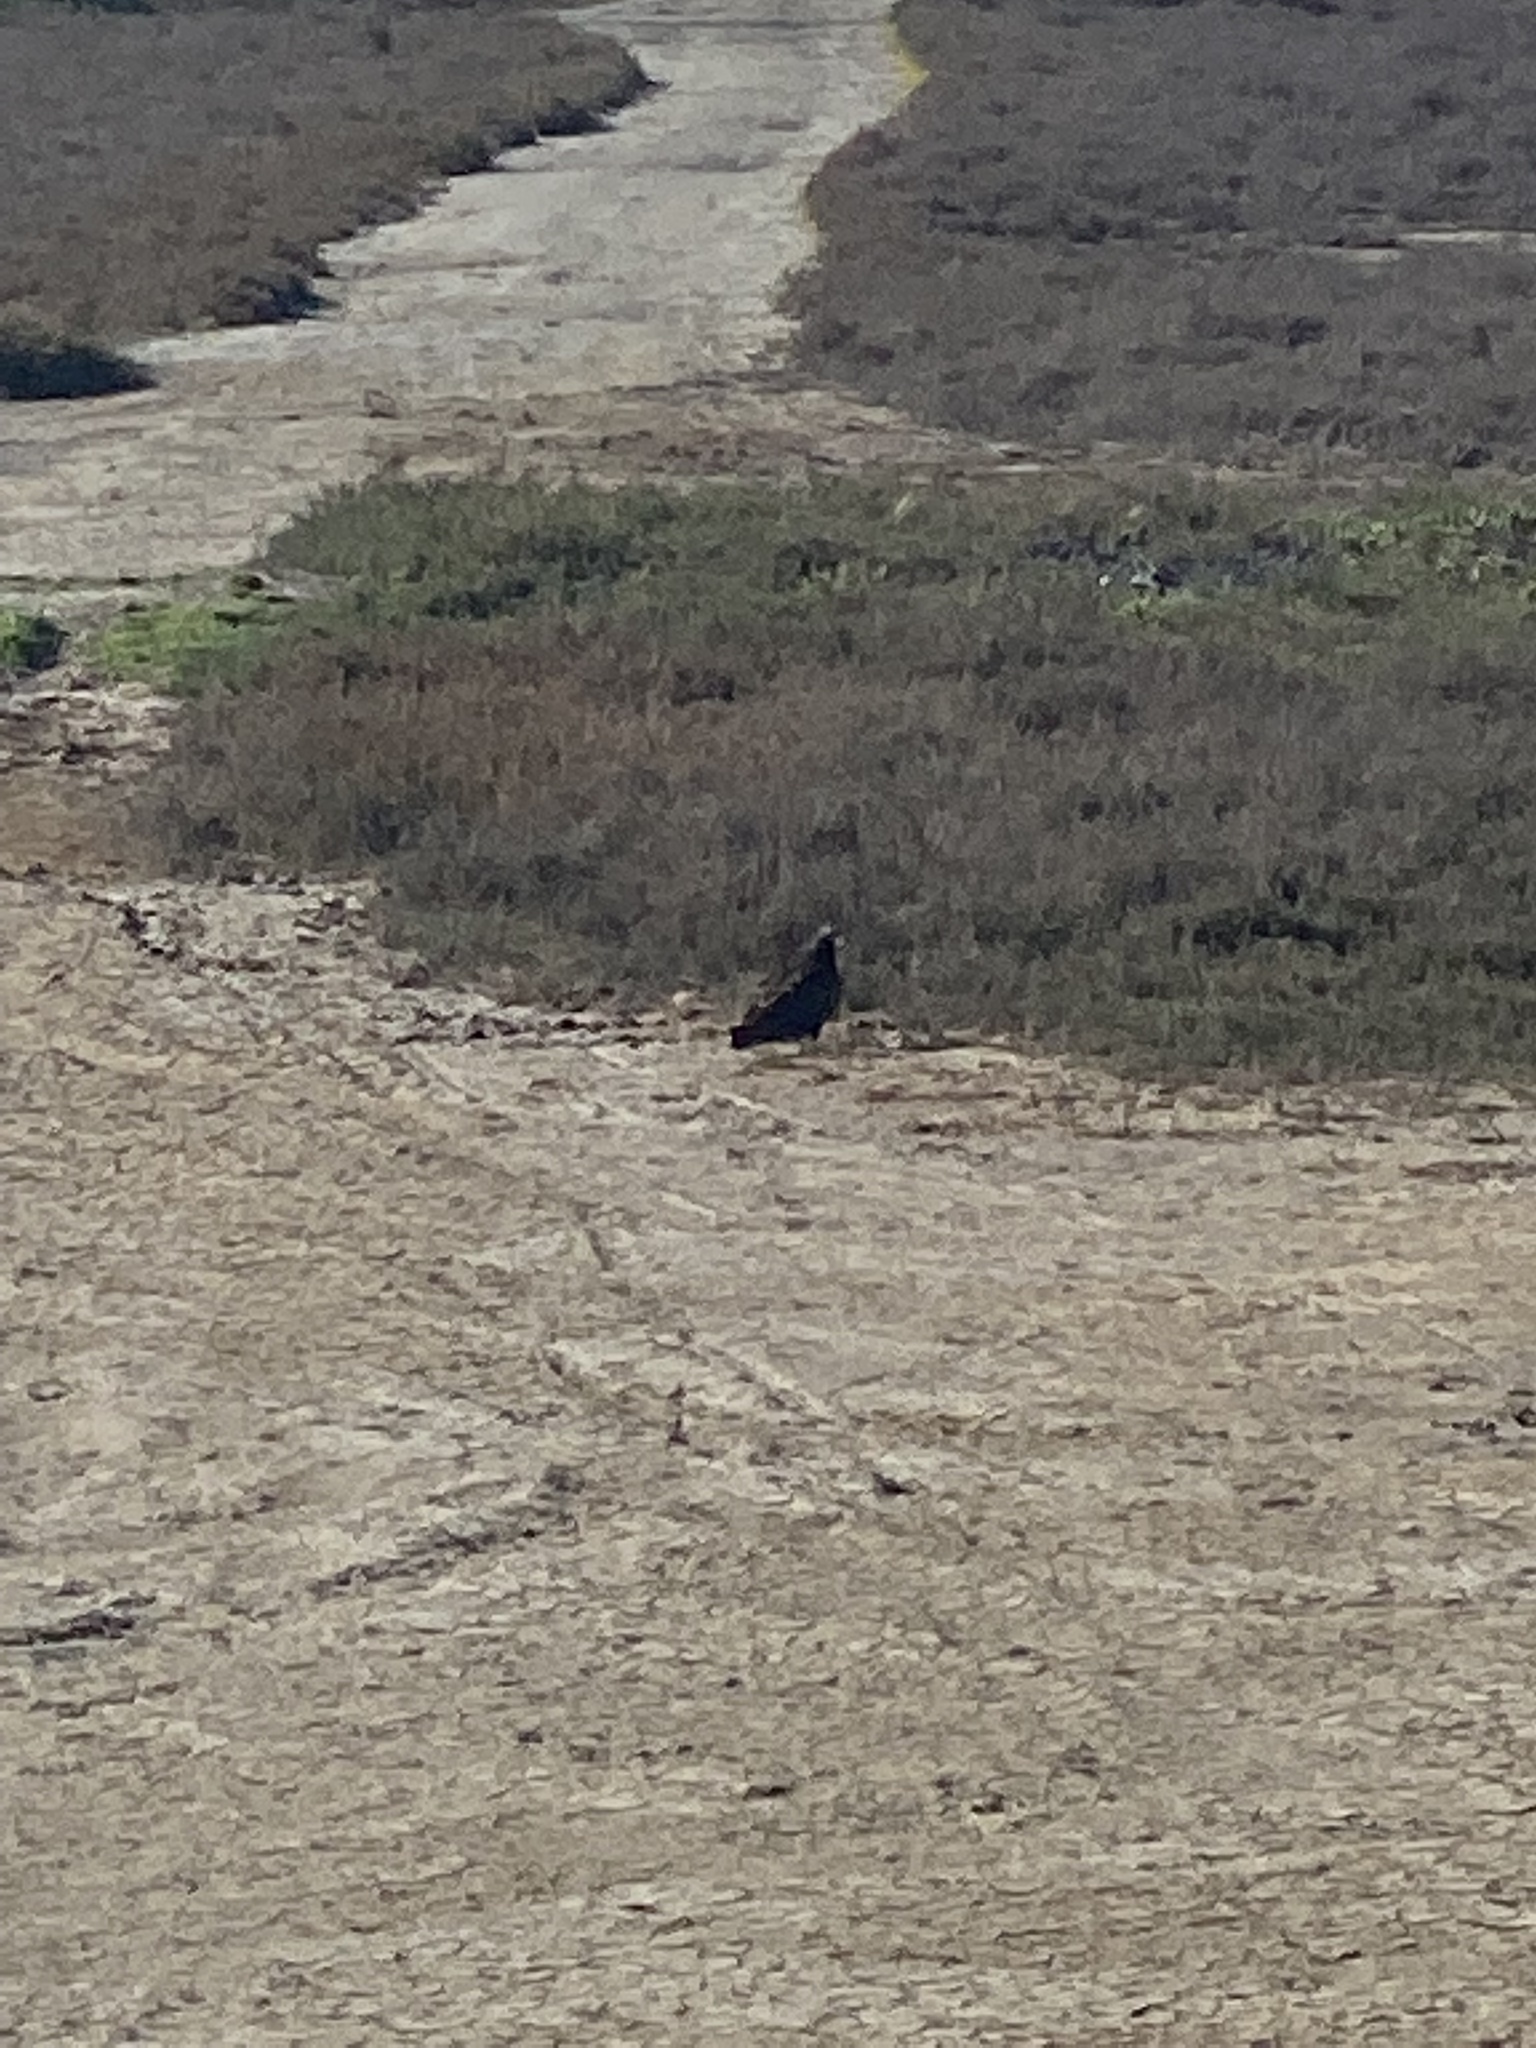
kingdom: Animalia
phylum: Chordata
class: Aves
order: Accipitriformes
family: Cathartidae
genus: Cathartes
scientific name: Cathartes aura
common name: Turkey vulture
